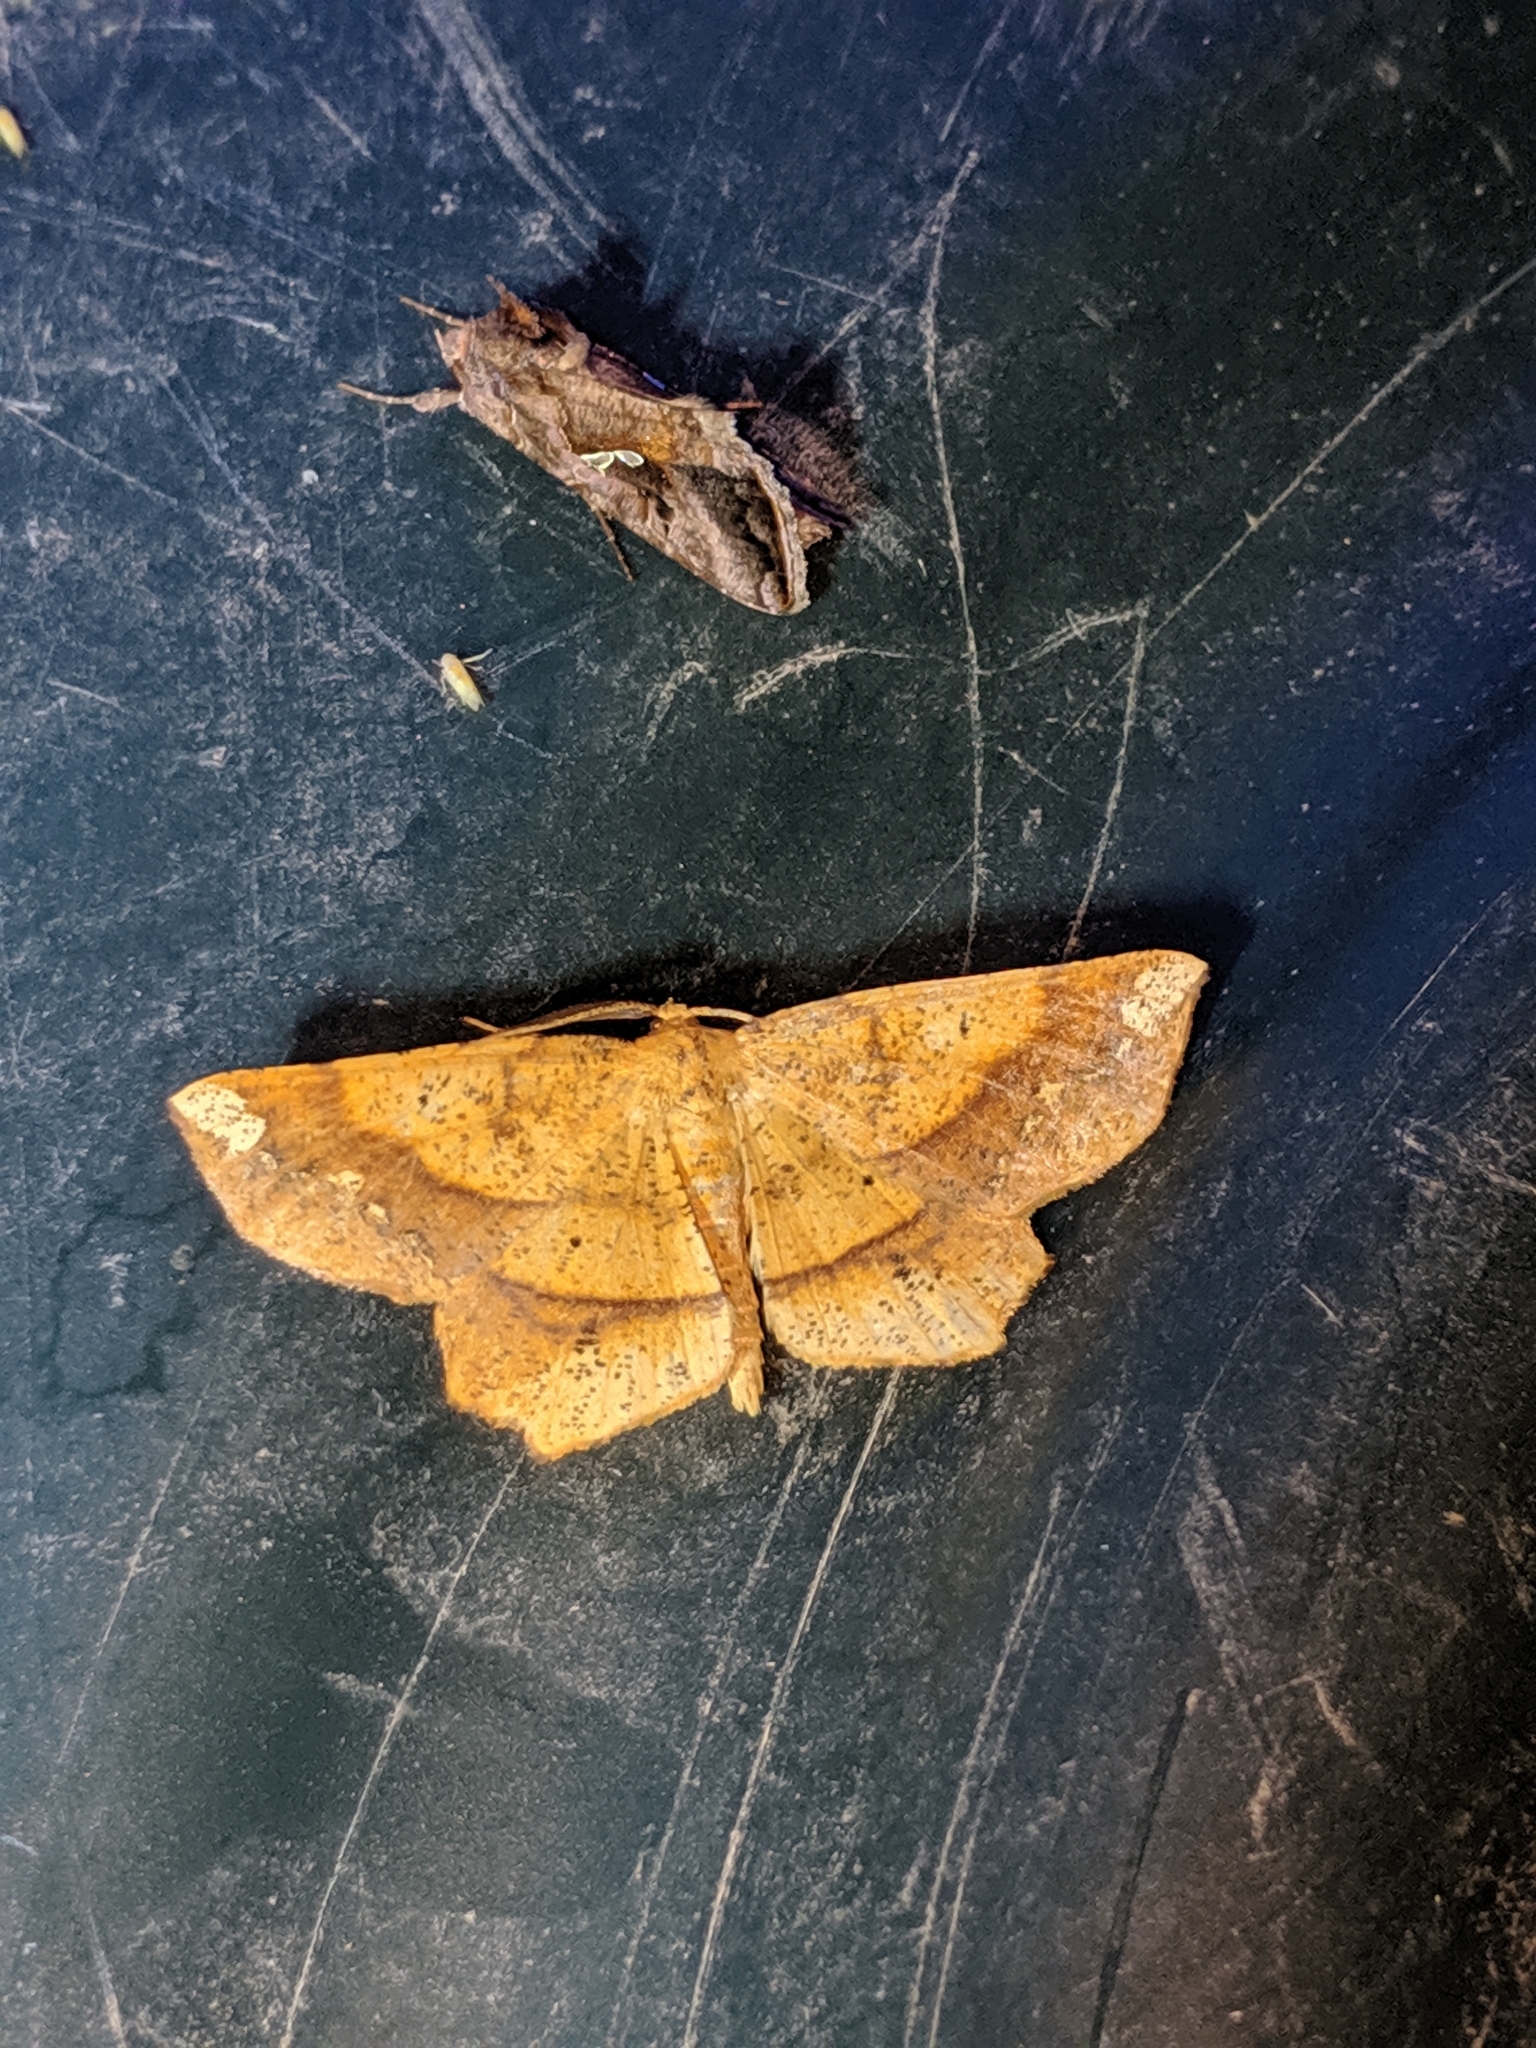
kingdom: Animalia
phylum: Arthropoda
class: Insecta
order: Lepidoptera
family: Geometridae
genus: Euchlaena
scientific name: Euchlaena amoenaria
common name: Deep yellow euchlaena
